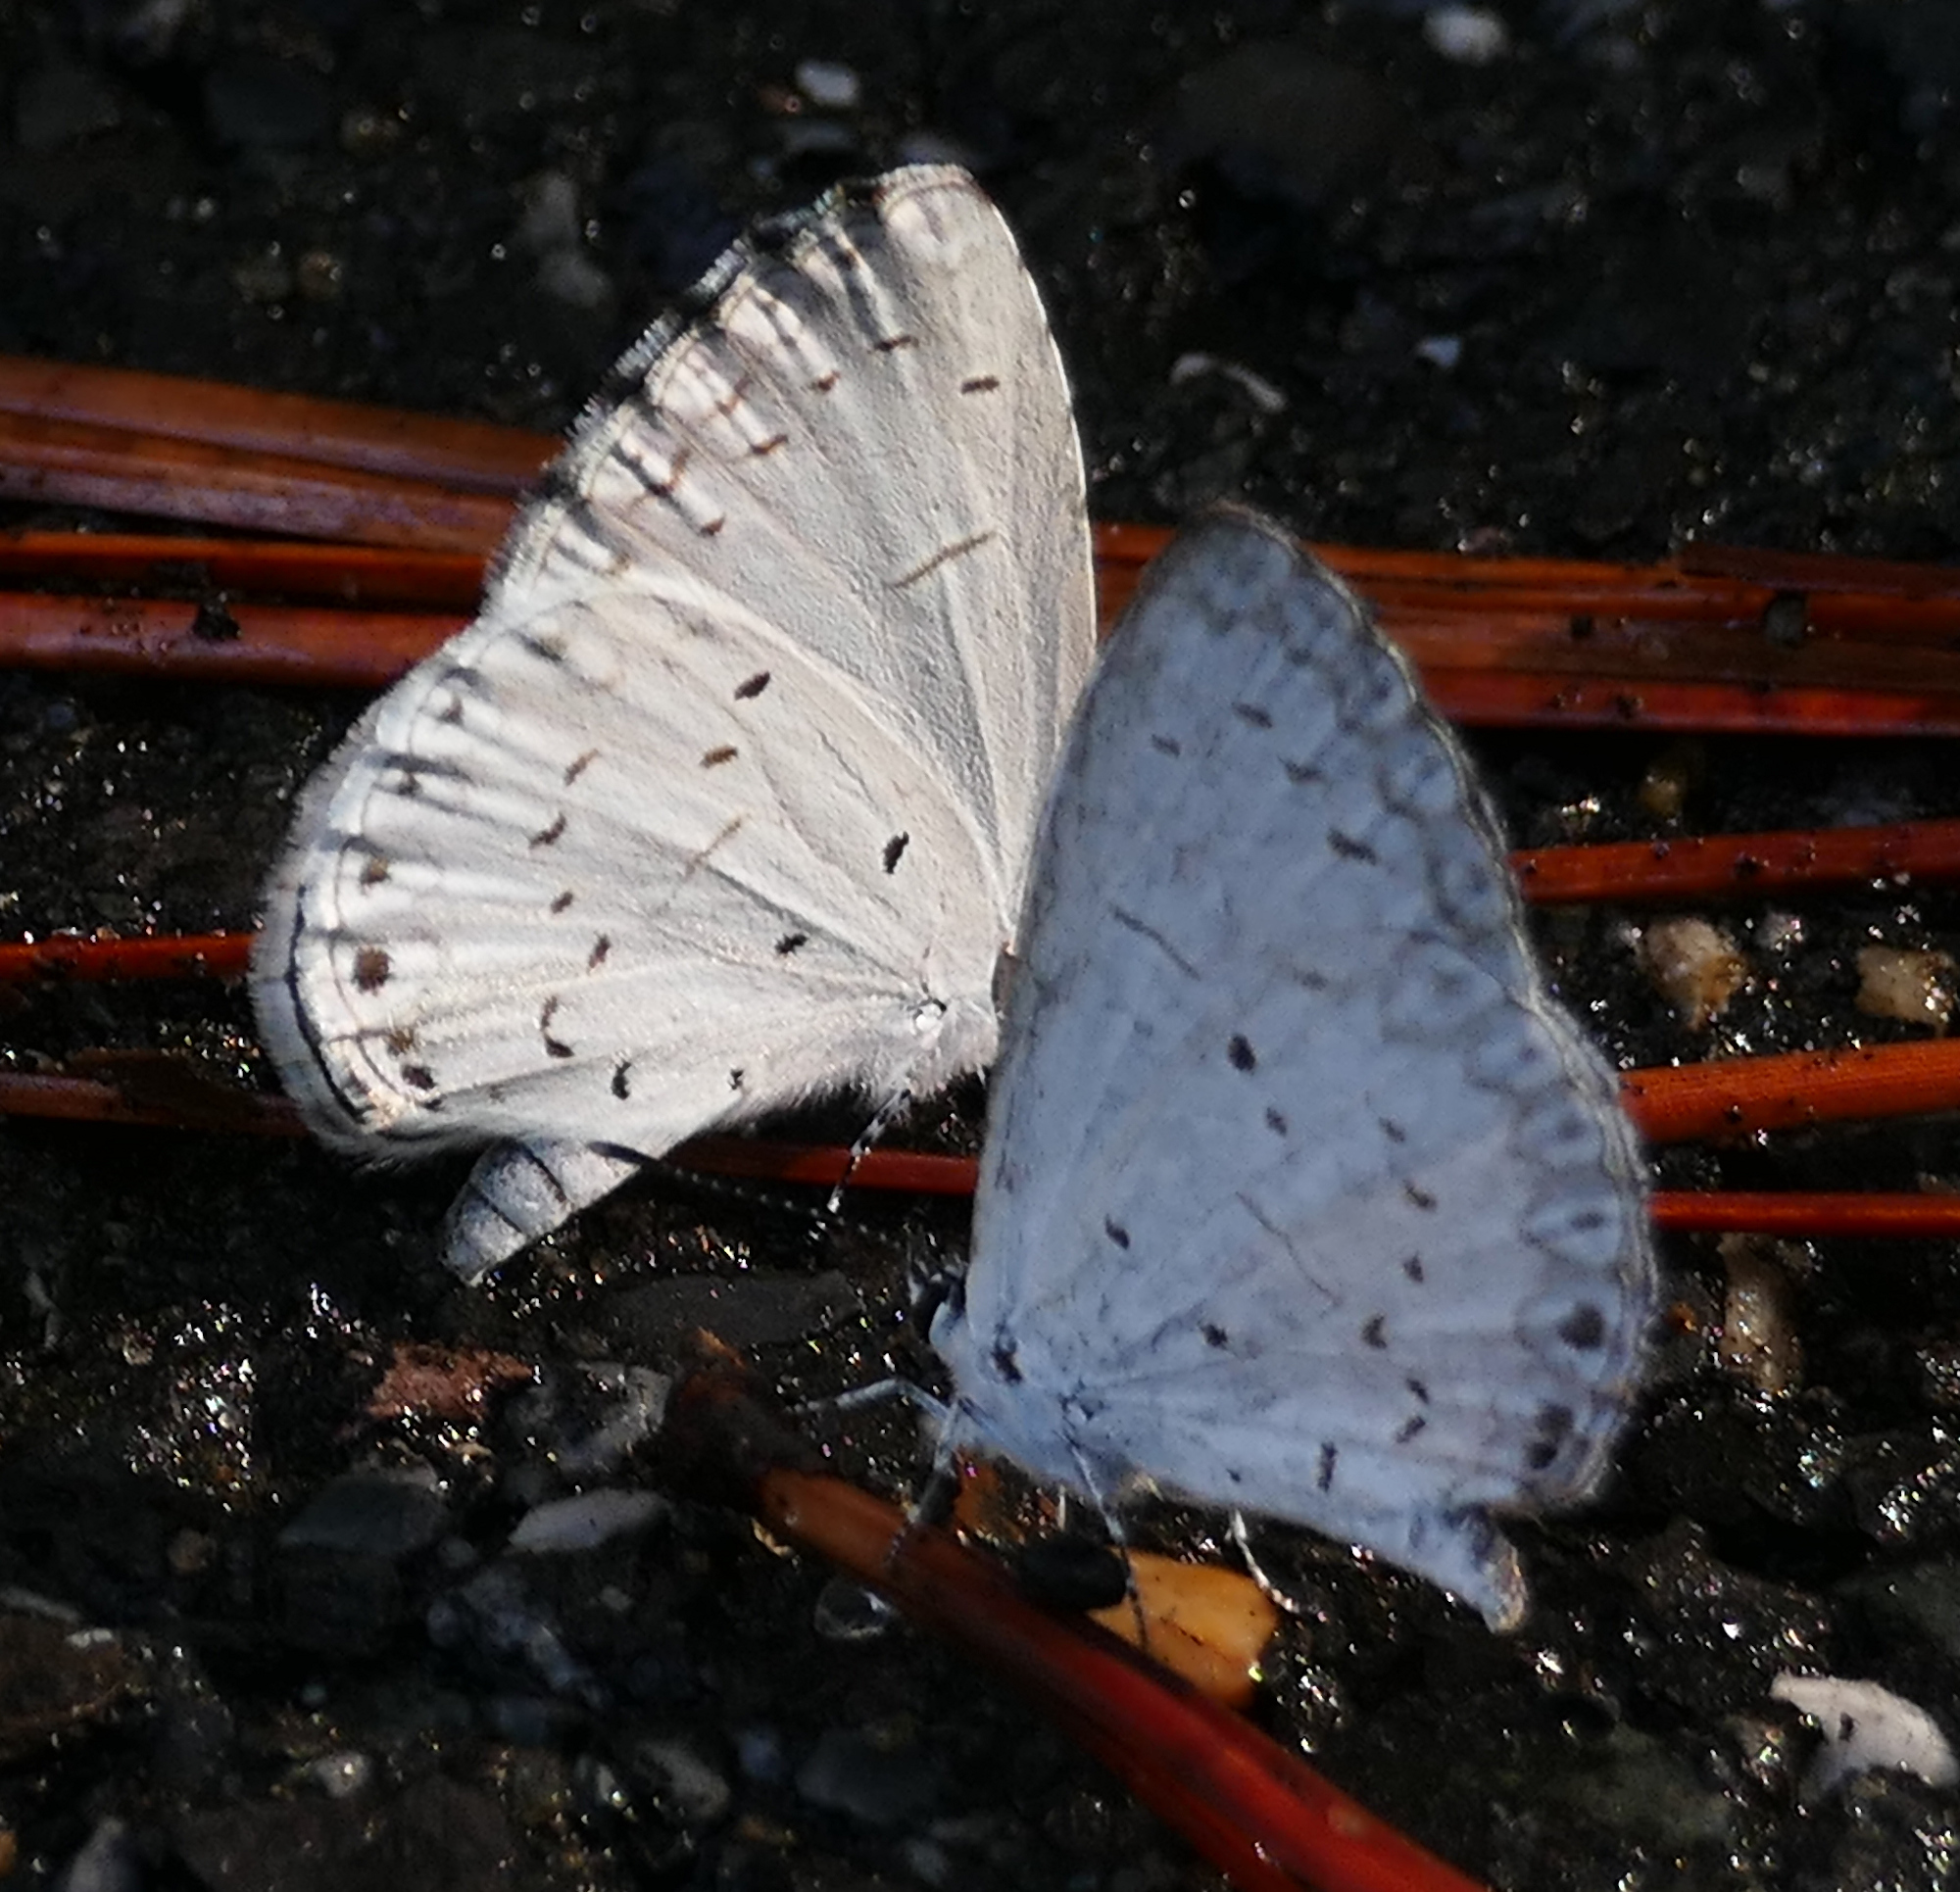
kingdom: Animalia
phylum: Arthropoda
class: Insecta
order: Lepidoptera
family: Lycaenidae
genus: Cyaniris
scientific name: Cyaniris neglecta
